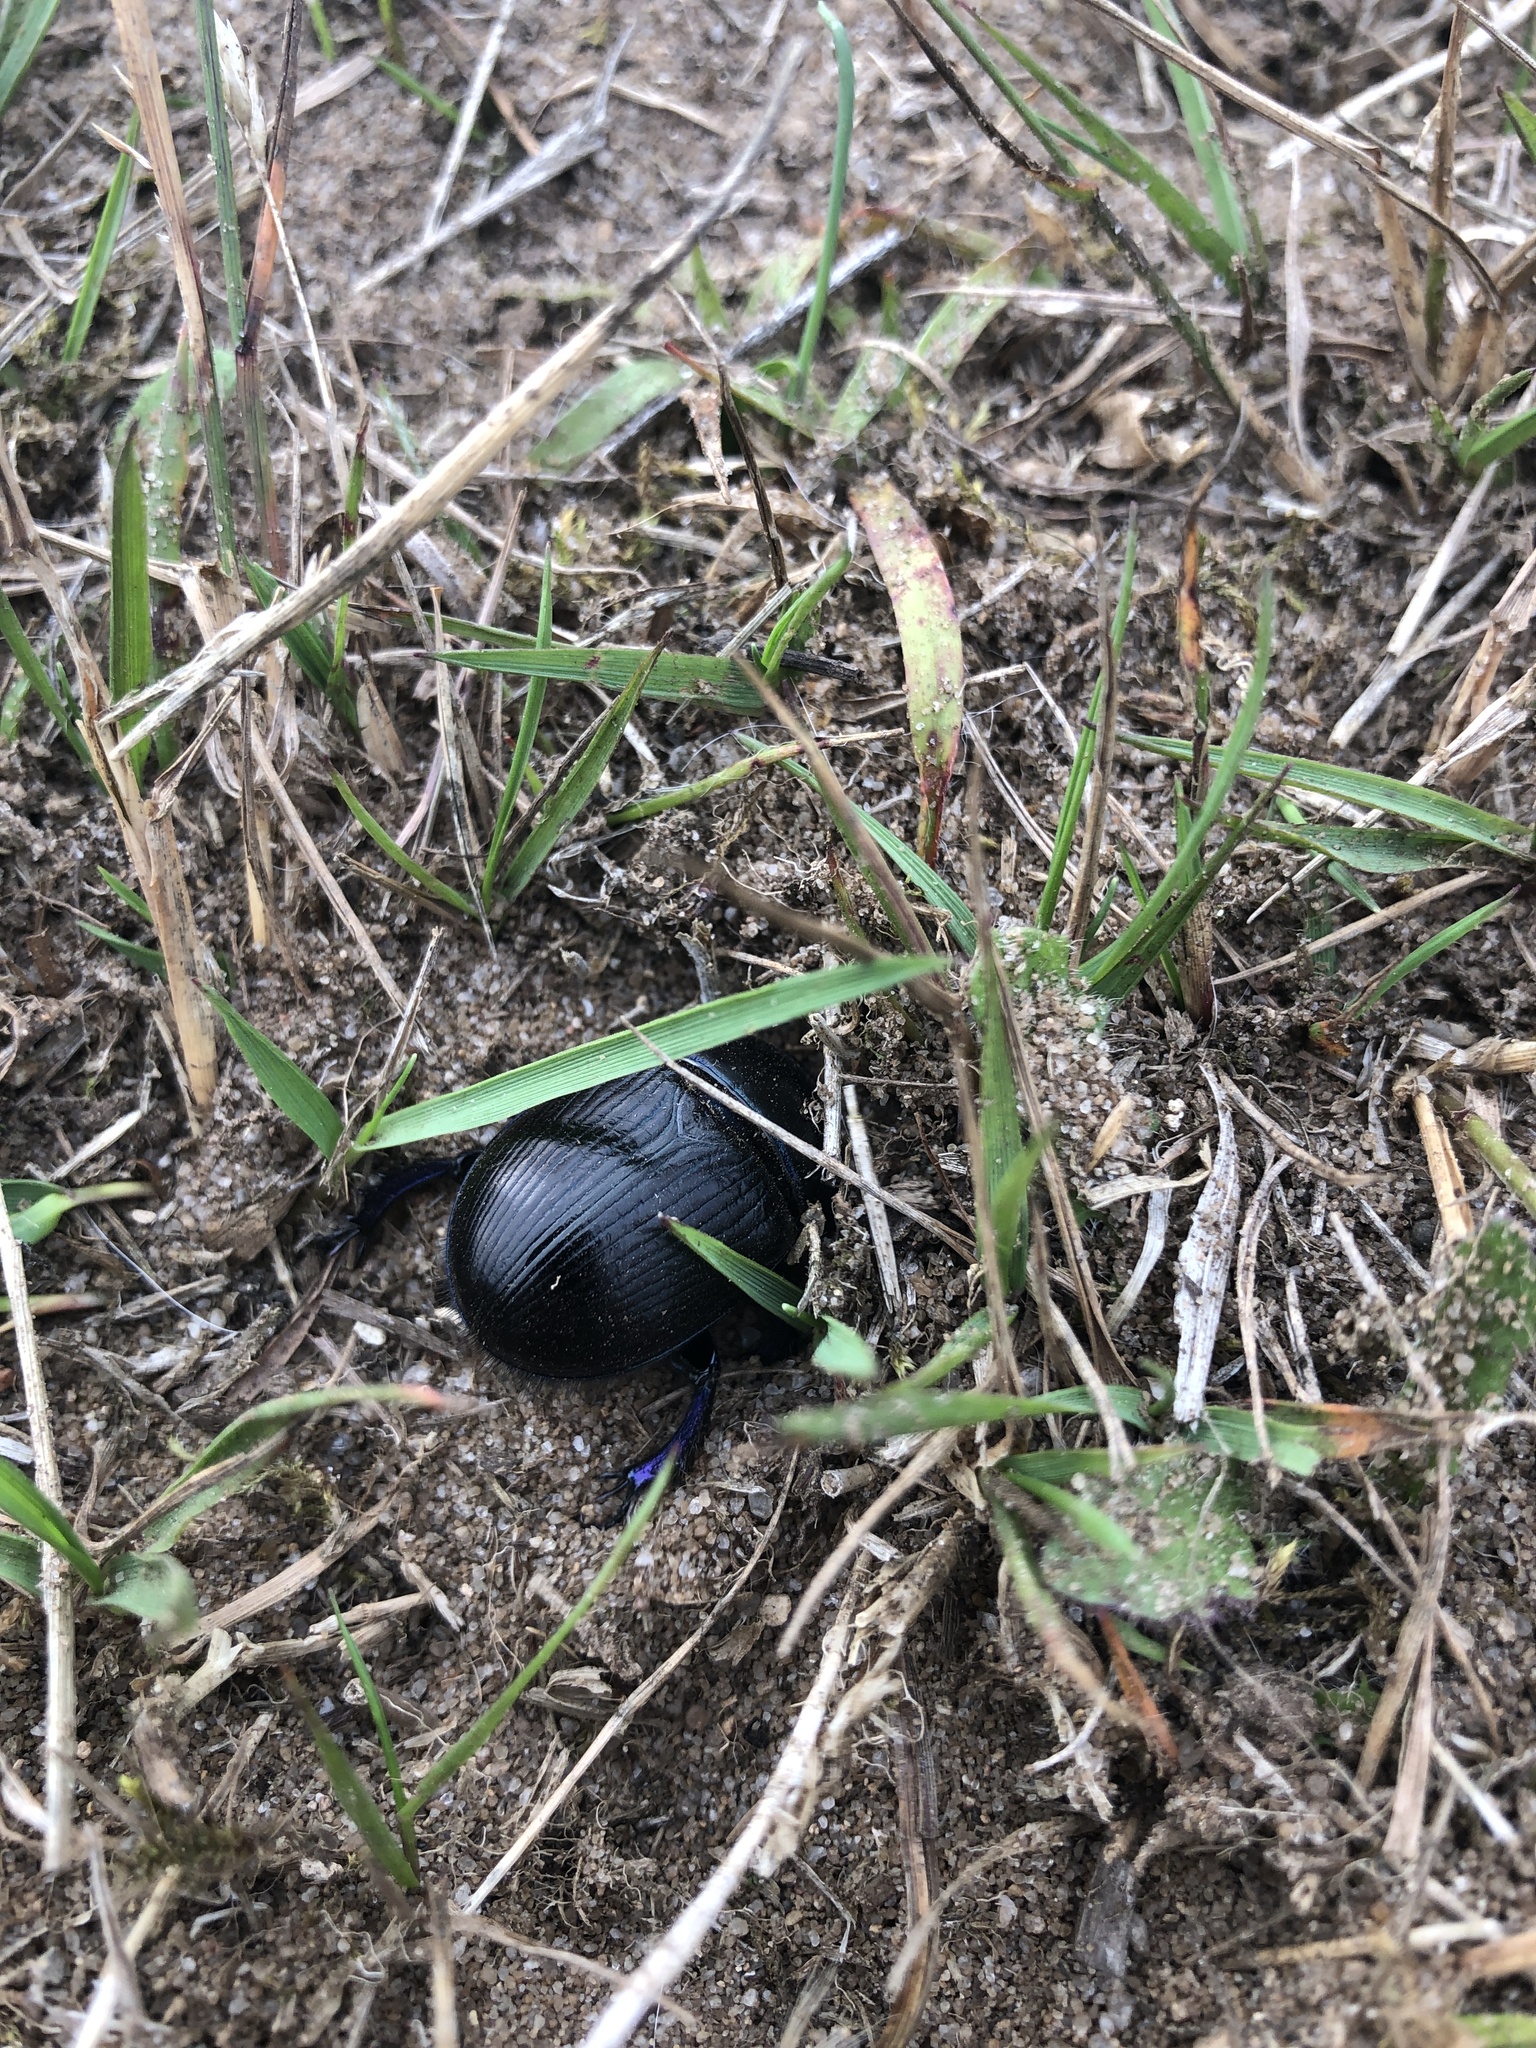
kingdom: Animalia
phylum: Arthropoda
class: Insecta
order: Coleoptera
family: Geotrupidae
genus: Anoplotrupes
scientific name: Anoplotrupes stercorosus
